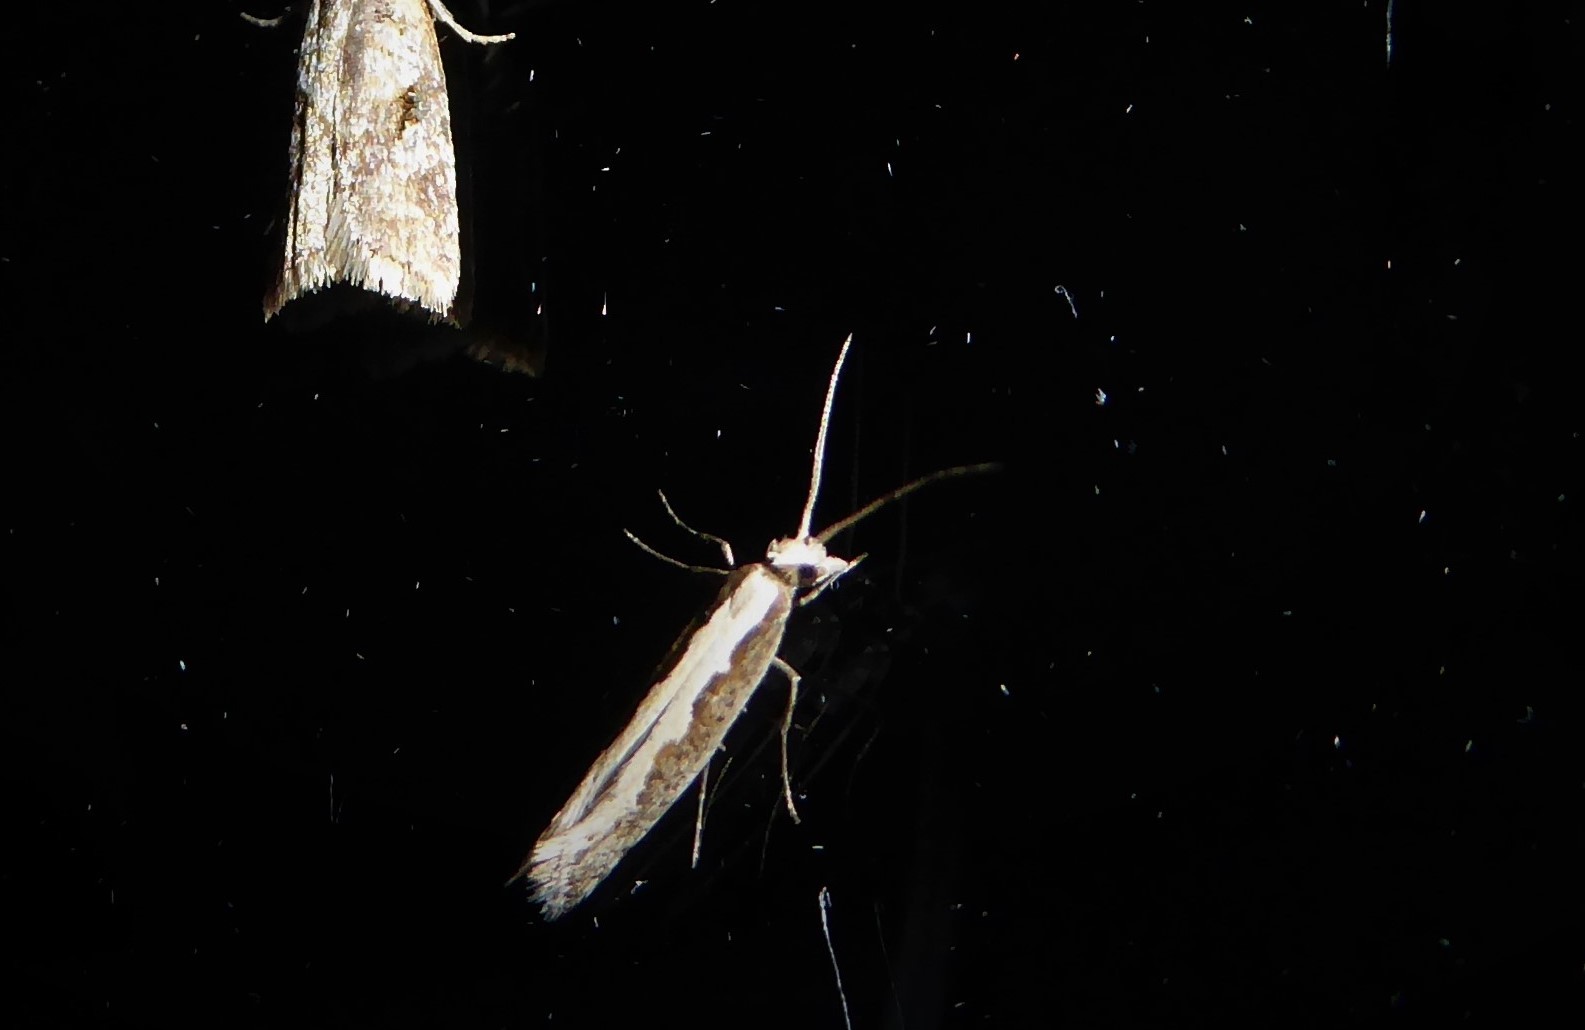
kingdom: Animalia
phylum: Arthropoda
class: Insecta
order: Lepidoptera
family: Plutellidae
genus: Plutella
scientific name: Plutella xylostella
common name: Diamond-back moth
